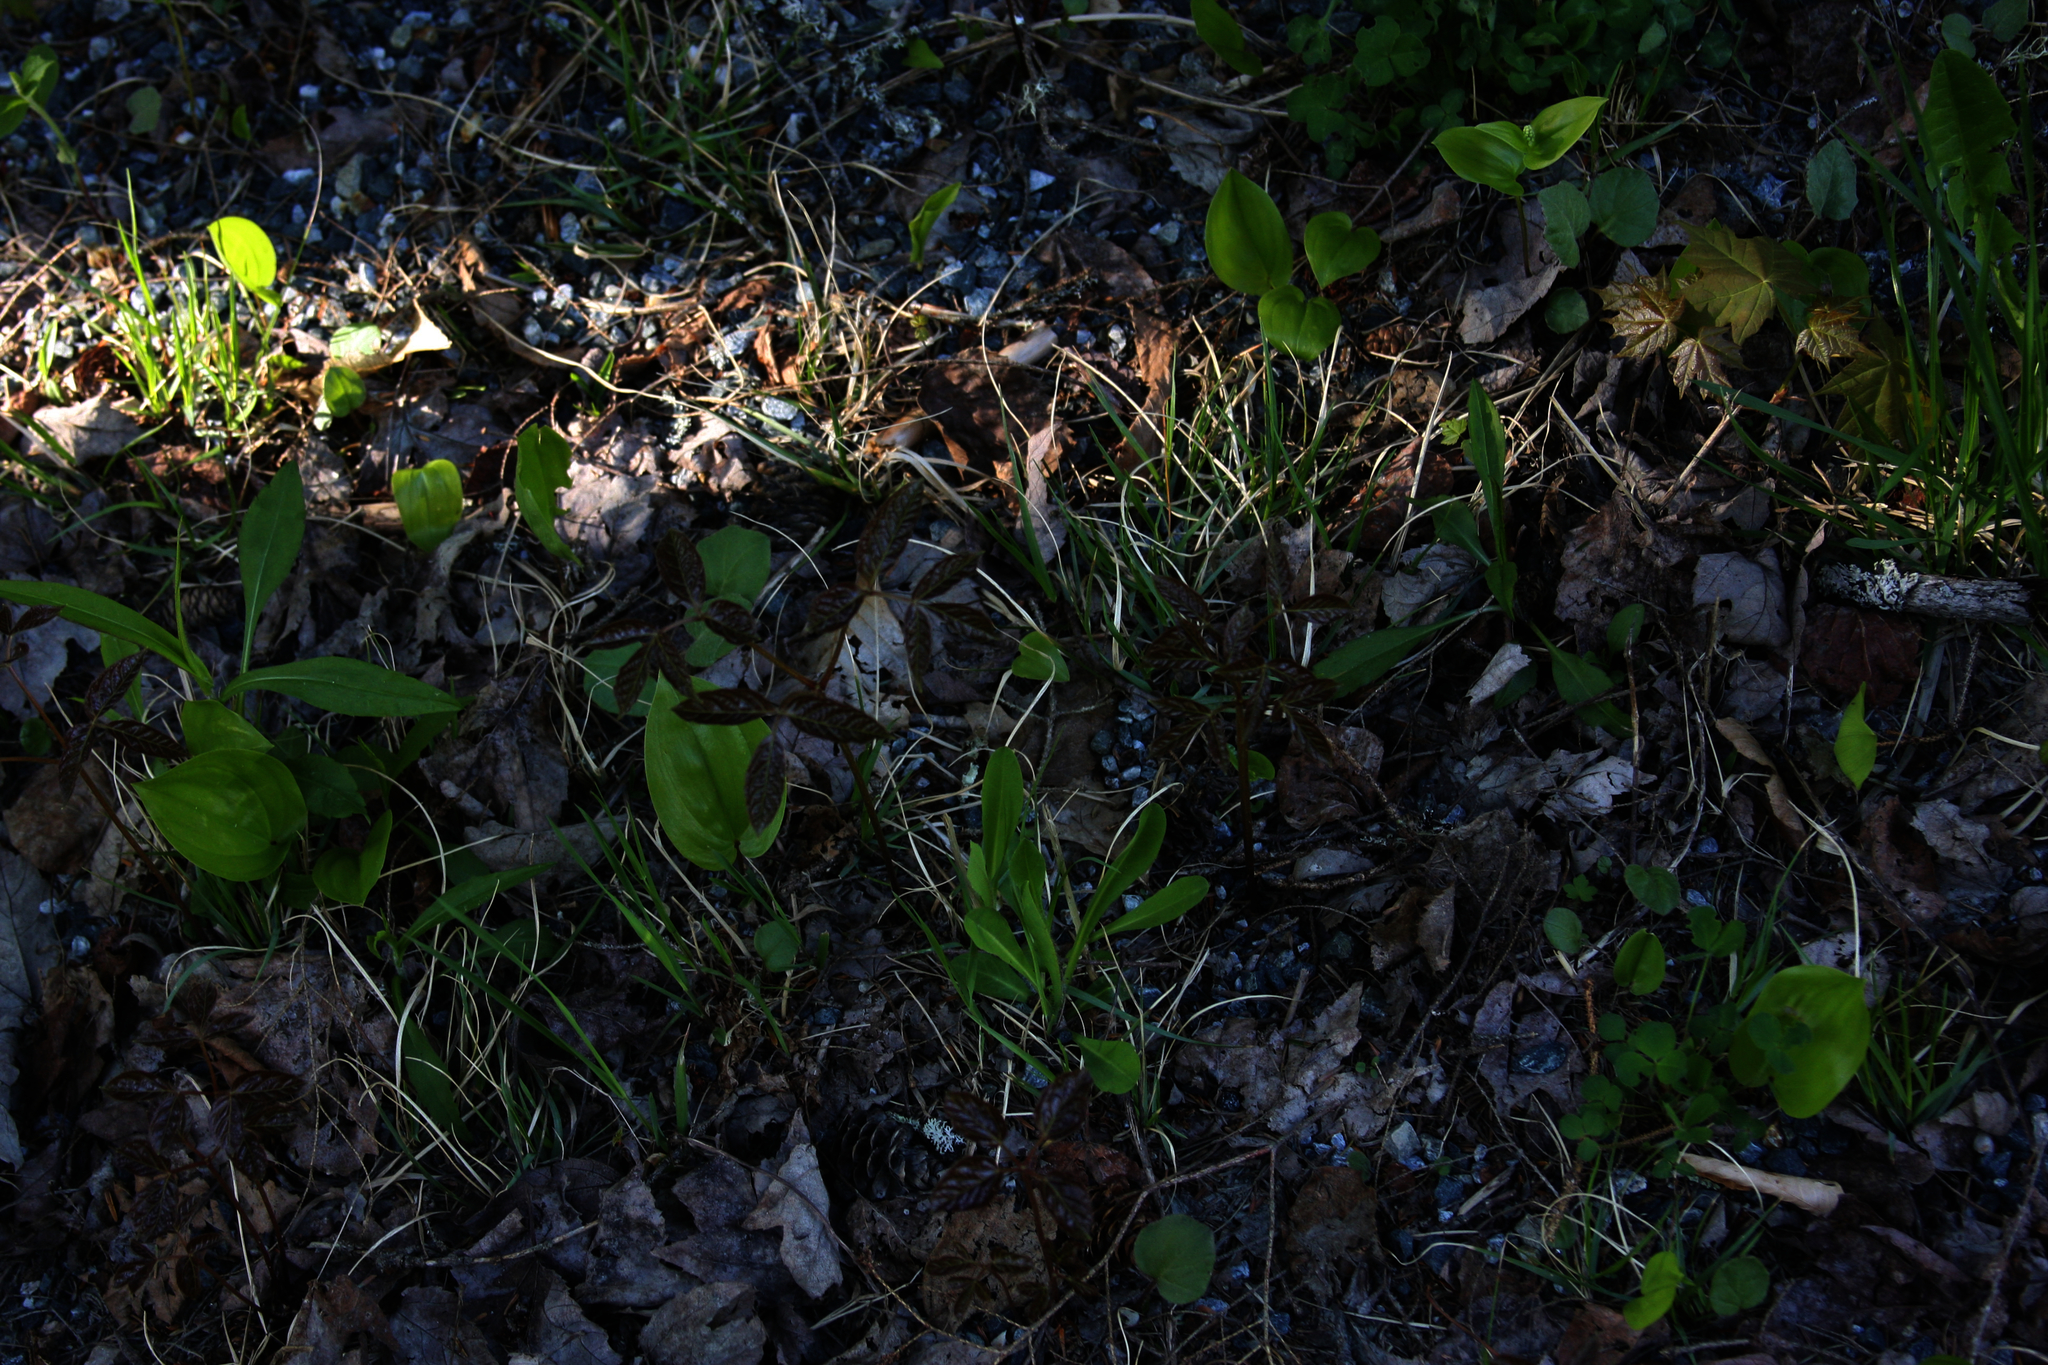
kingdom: Plantae
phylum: Tracheophyta
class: Magnoliopsida
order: Apiales
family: Araliaceae
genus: Aralia
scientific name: Aralia nudicaulis
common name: Wild sarsaparilla
